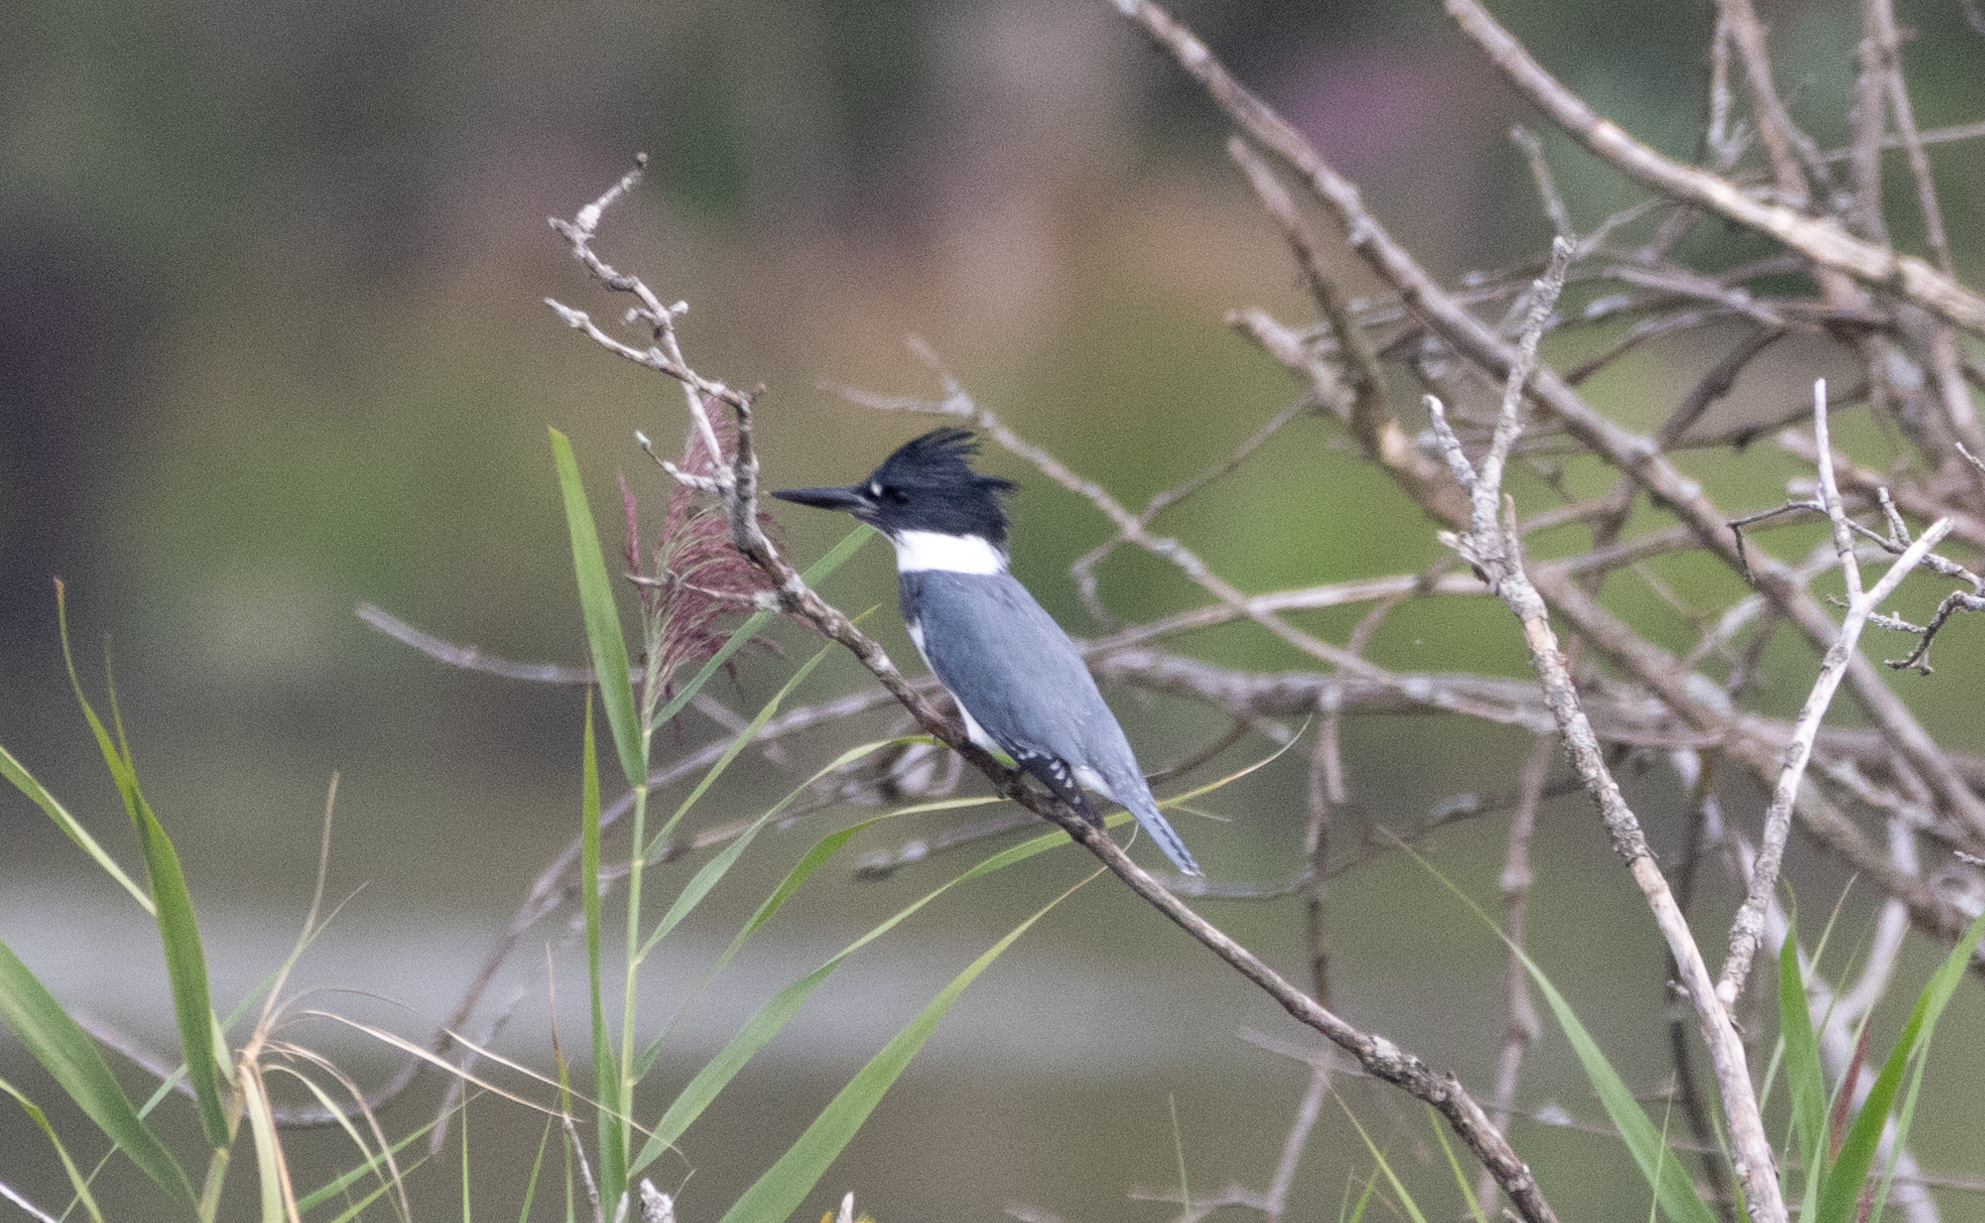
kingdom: Animalia
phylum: Chordata
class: Aves
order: Coraciiformes
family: Alcedinidae
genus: Megaceryle
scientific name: Megaceryle alcyon
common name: Belted kingfisher
